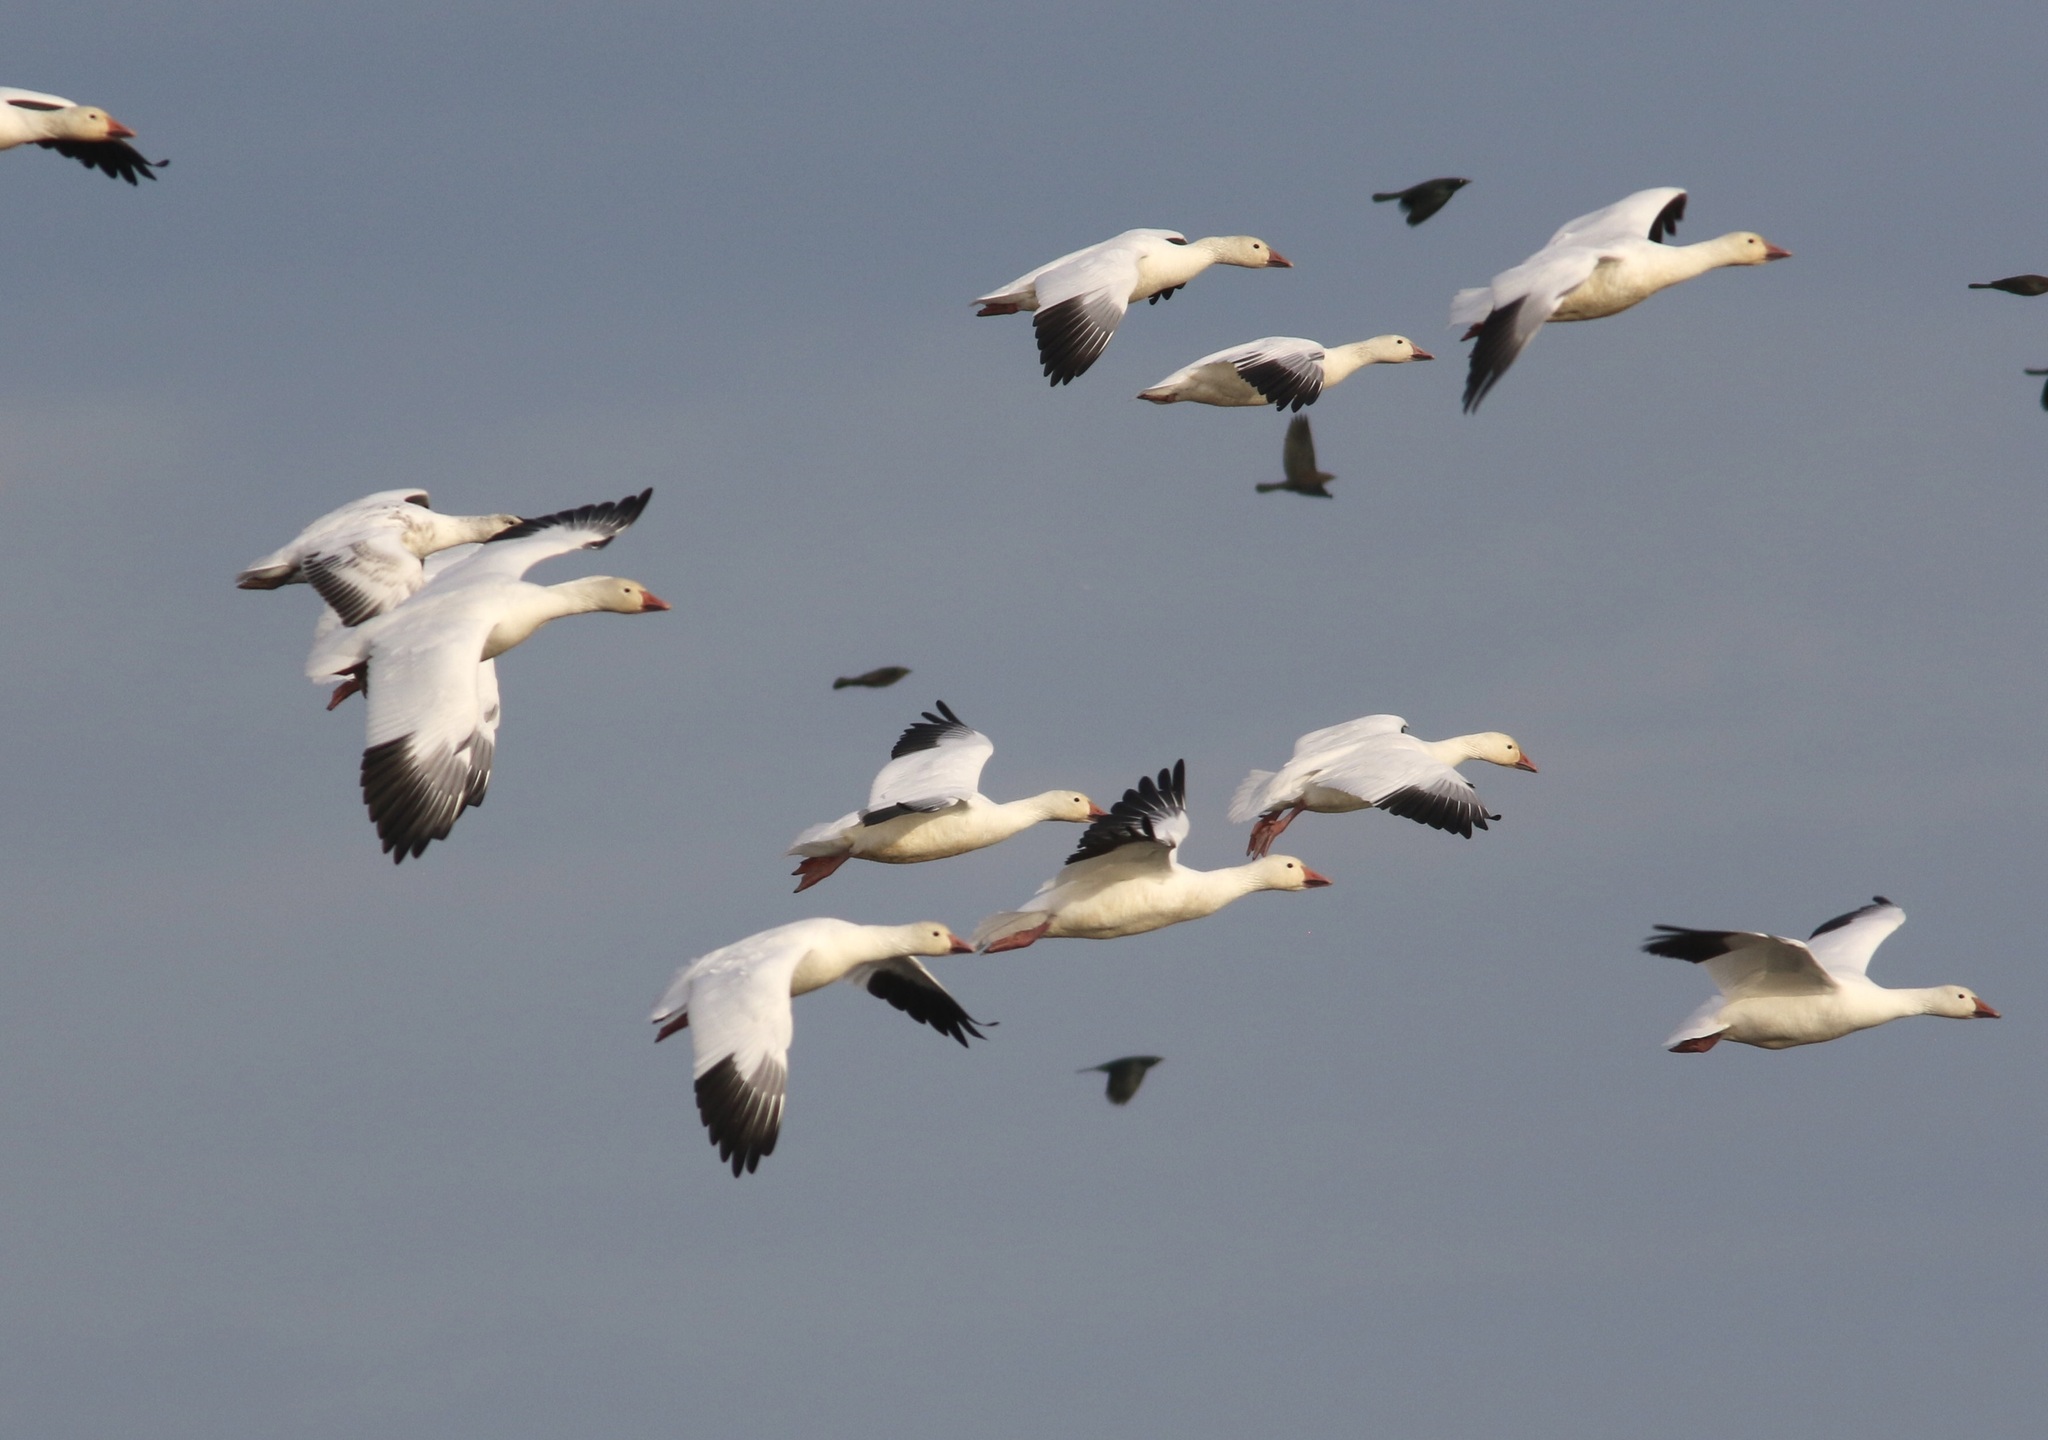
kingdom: Animalia
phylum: Chordata
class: Aves
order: Anseriformes
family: Anatidae
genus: Anser
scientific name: Anser caerulescens
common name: Snow goose
